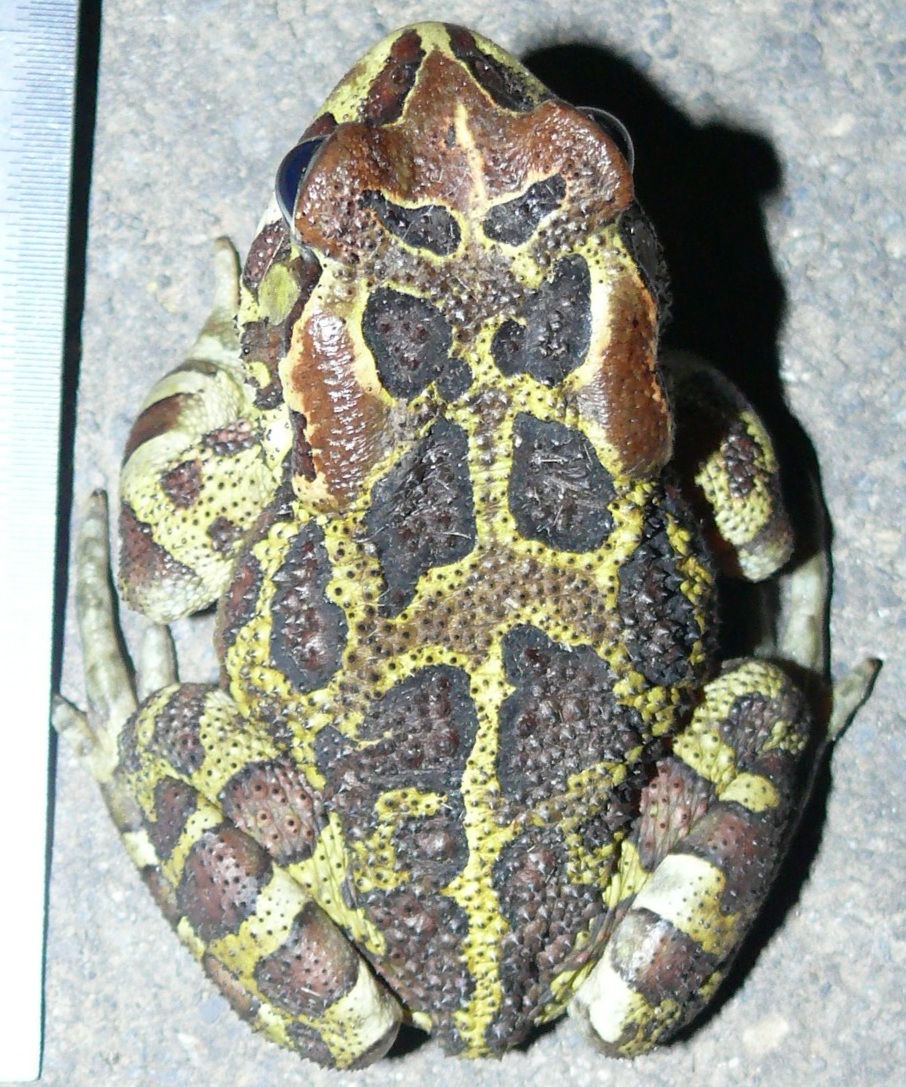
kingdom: Animalia
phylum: Chordata
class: Amphibia
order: Anura
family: Bufonidae
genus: Sclerophrys
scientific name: Sclerophrys pantherina
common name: Panther toad
